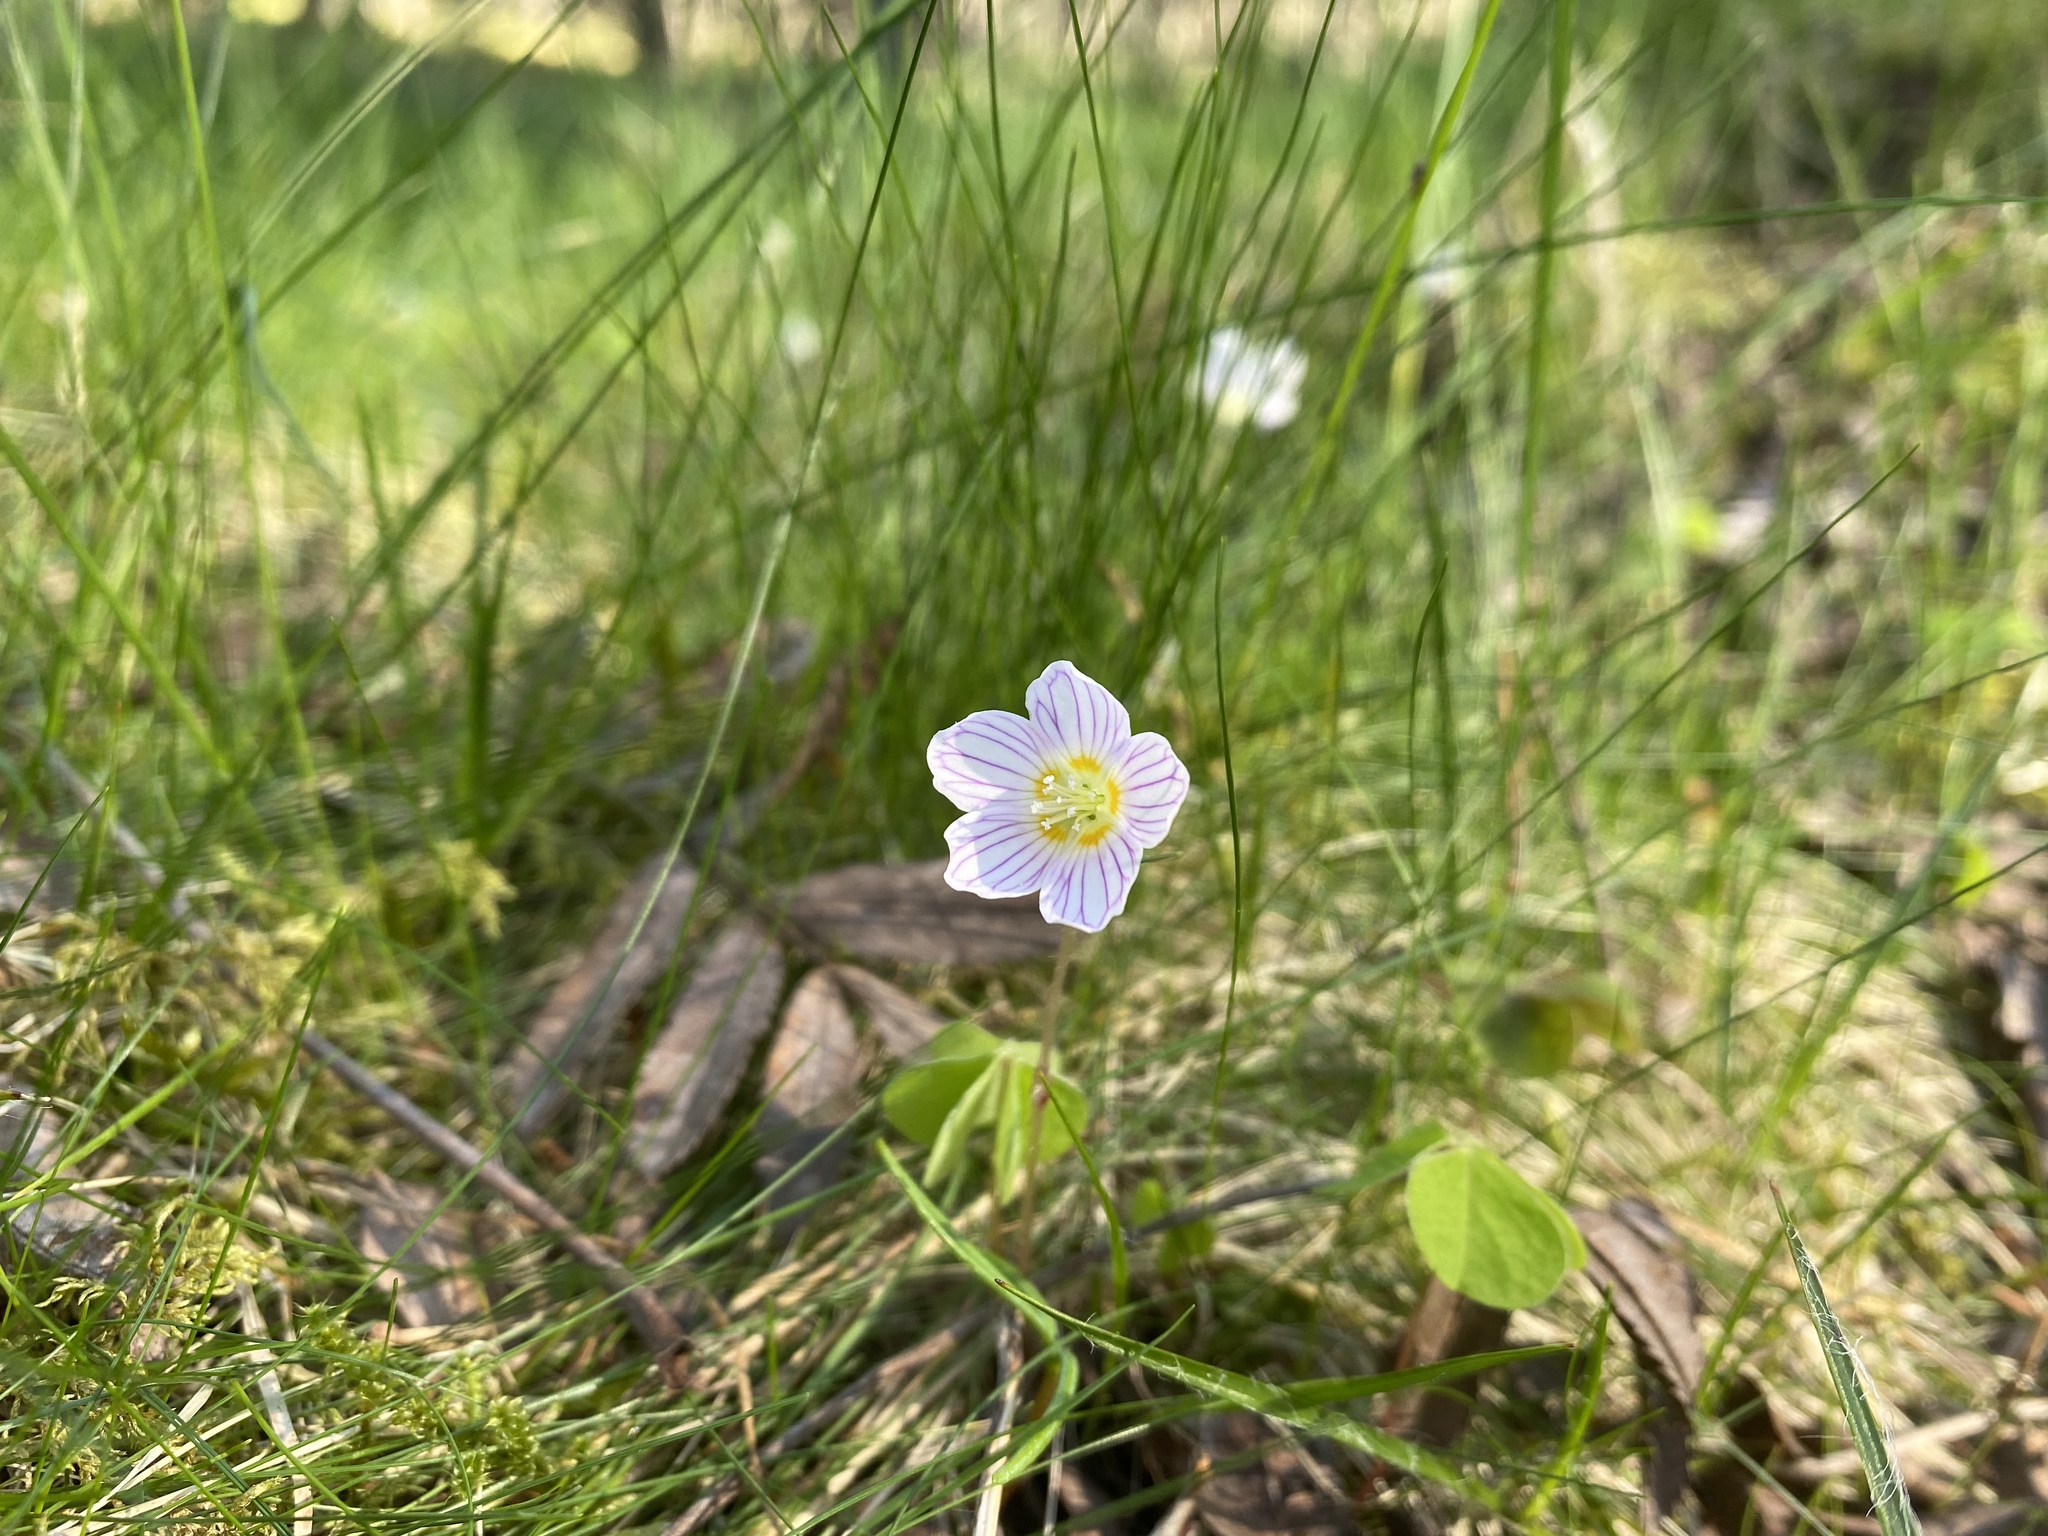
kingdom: Plantae
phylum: Tracheophyta
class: Magnoliopsida
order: Oxalidales
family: Oxalidaceae
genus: Oxalis
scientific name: Oxalis acetosella
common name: Wood-sorrel
